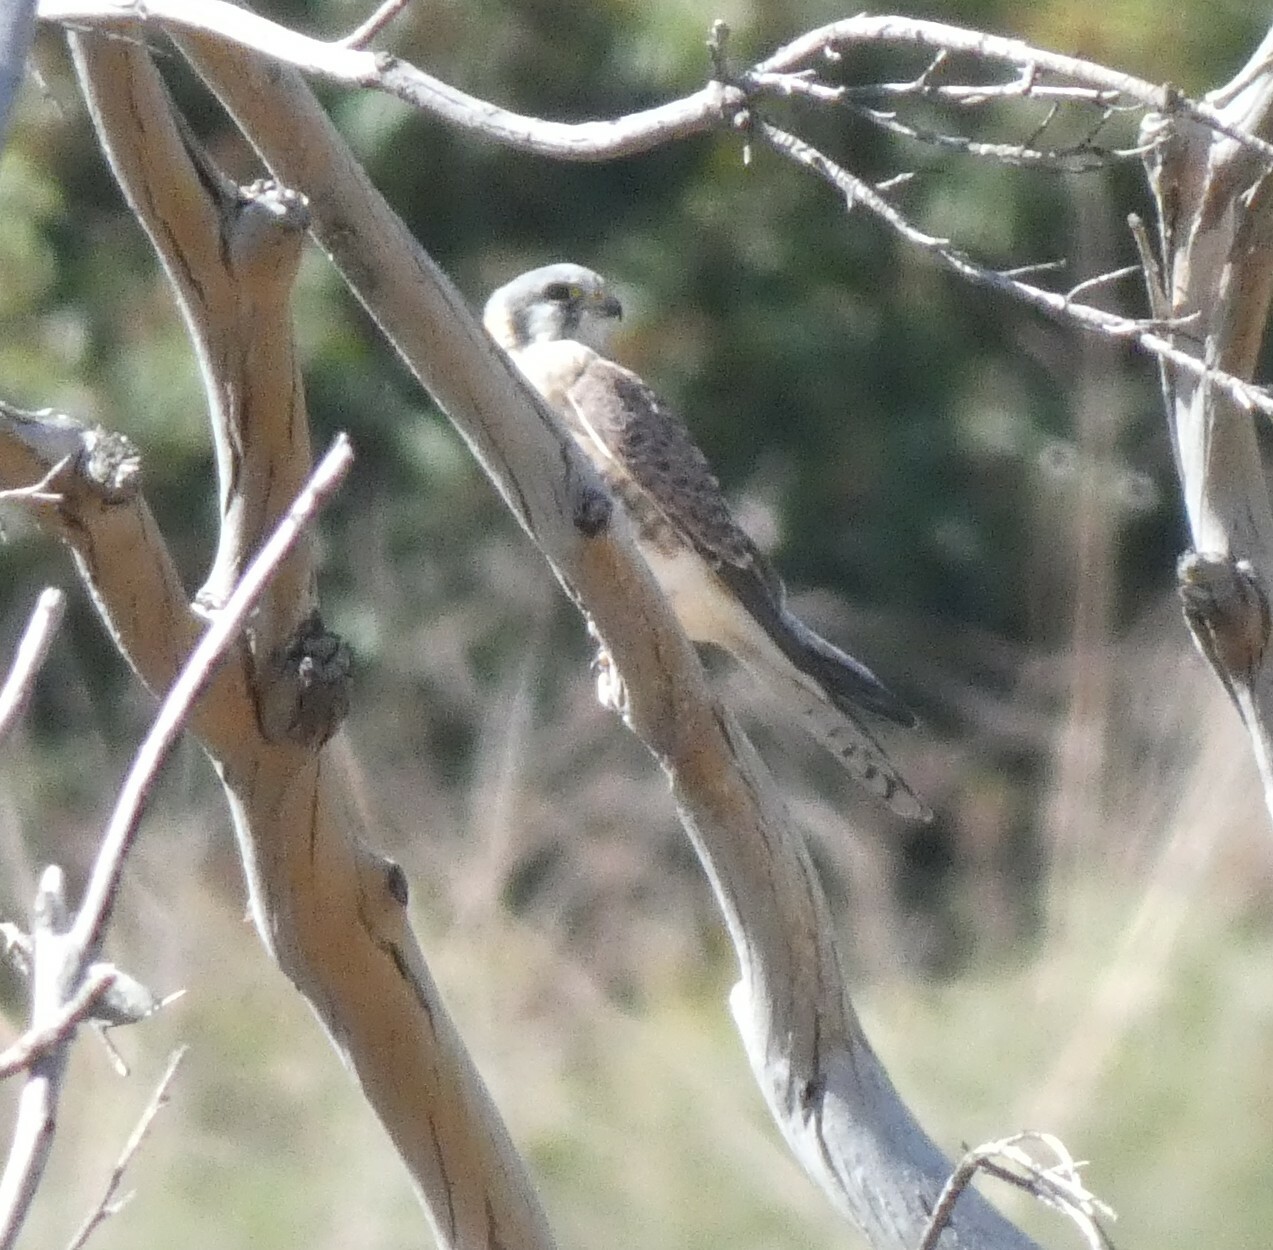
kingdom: Animalia
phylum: Chordata
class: Aves
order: Falconiformes
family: Falconidae
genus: Falco
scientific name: Falco sparverius
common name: American kestrel
